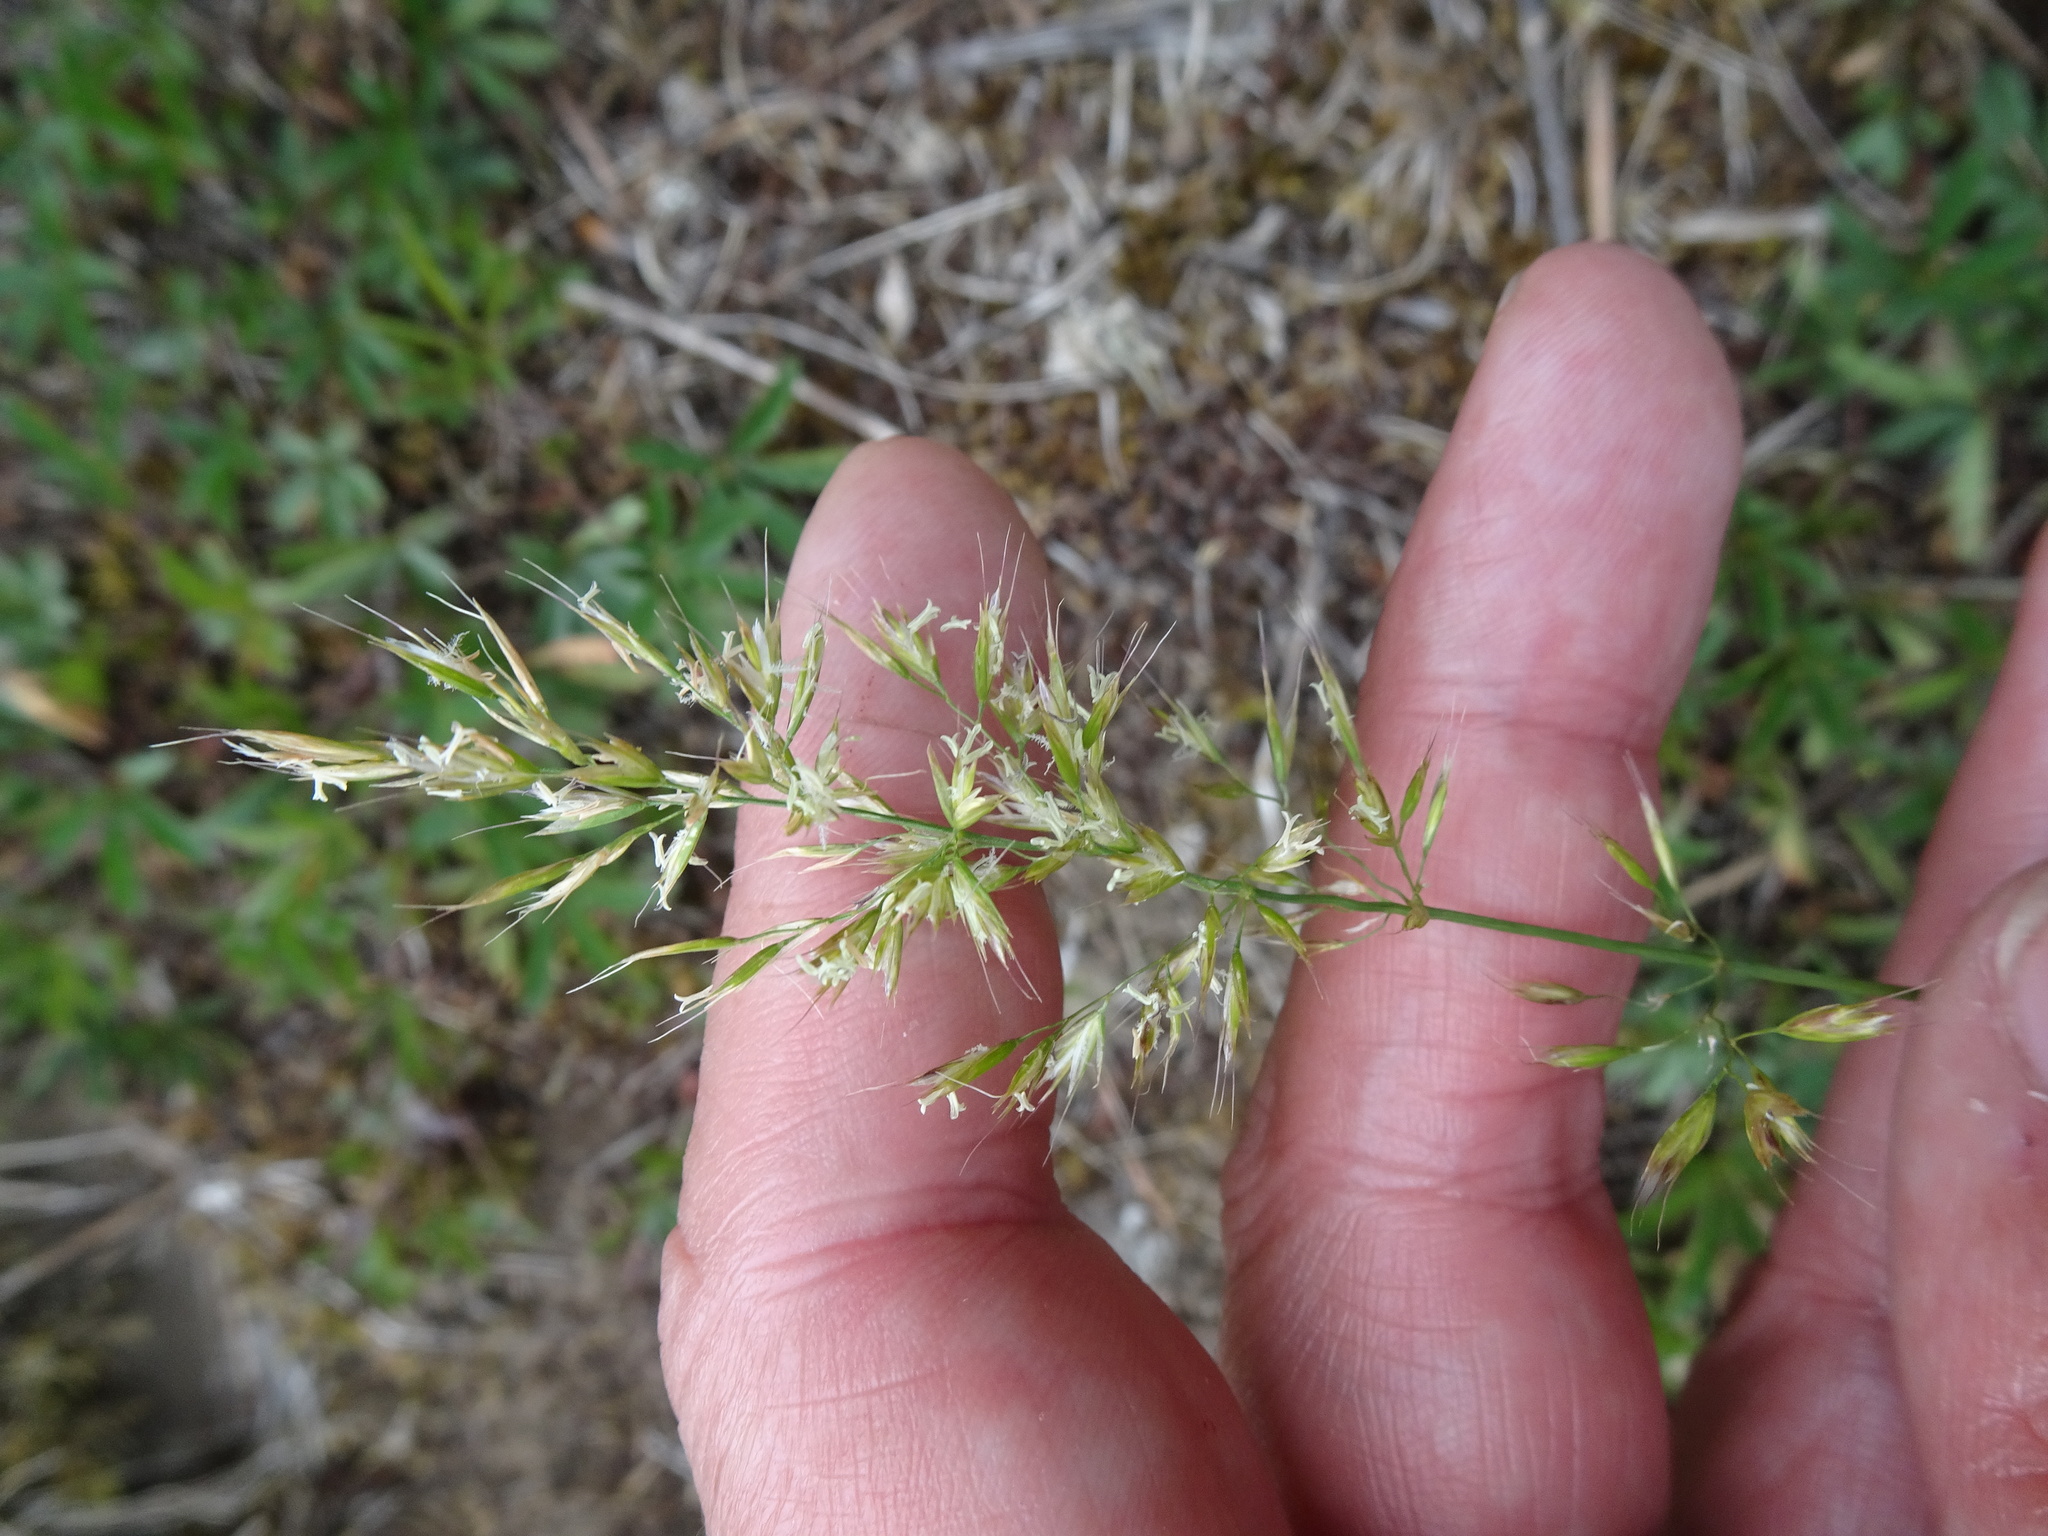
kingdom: Plantae
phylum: Tracheophyta
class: Liliopsida
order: Poales
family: Poaceae
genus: Trisetum
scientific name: Trisetum flavescens
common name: Yellow oat-grass
